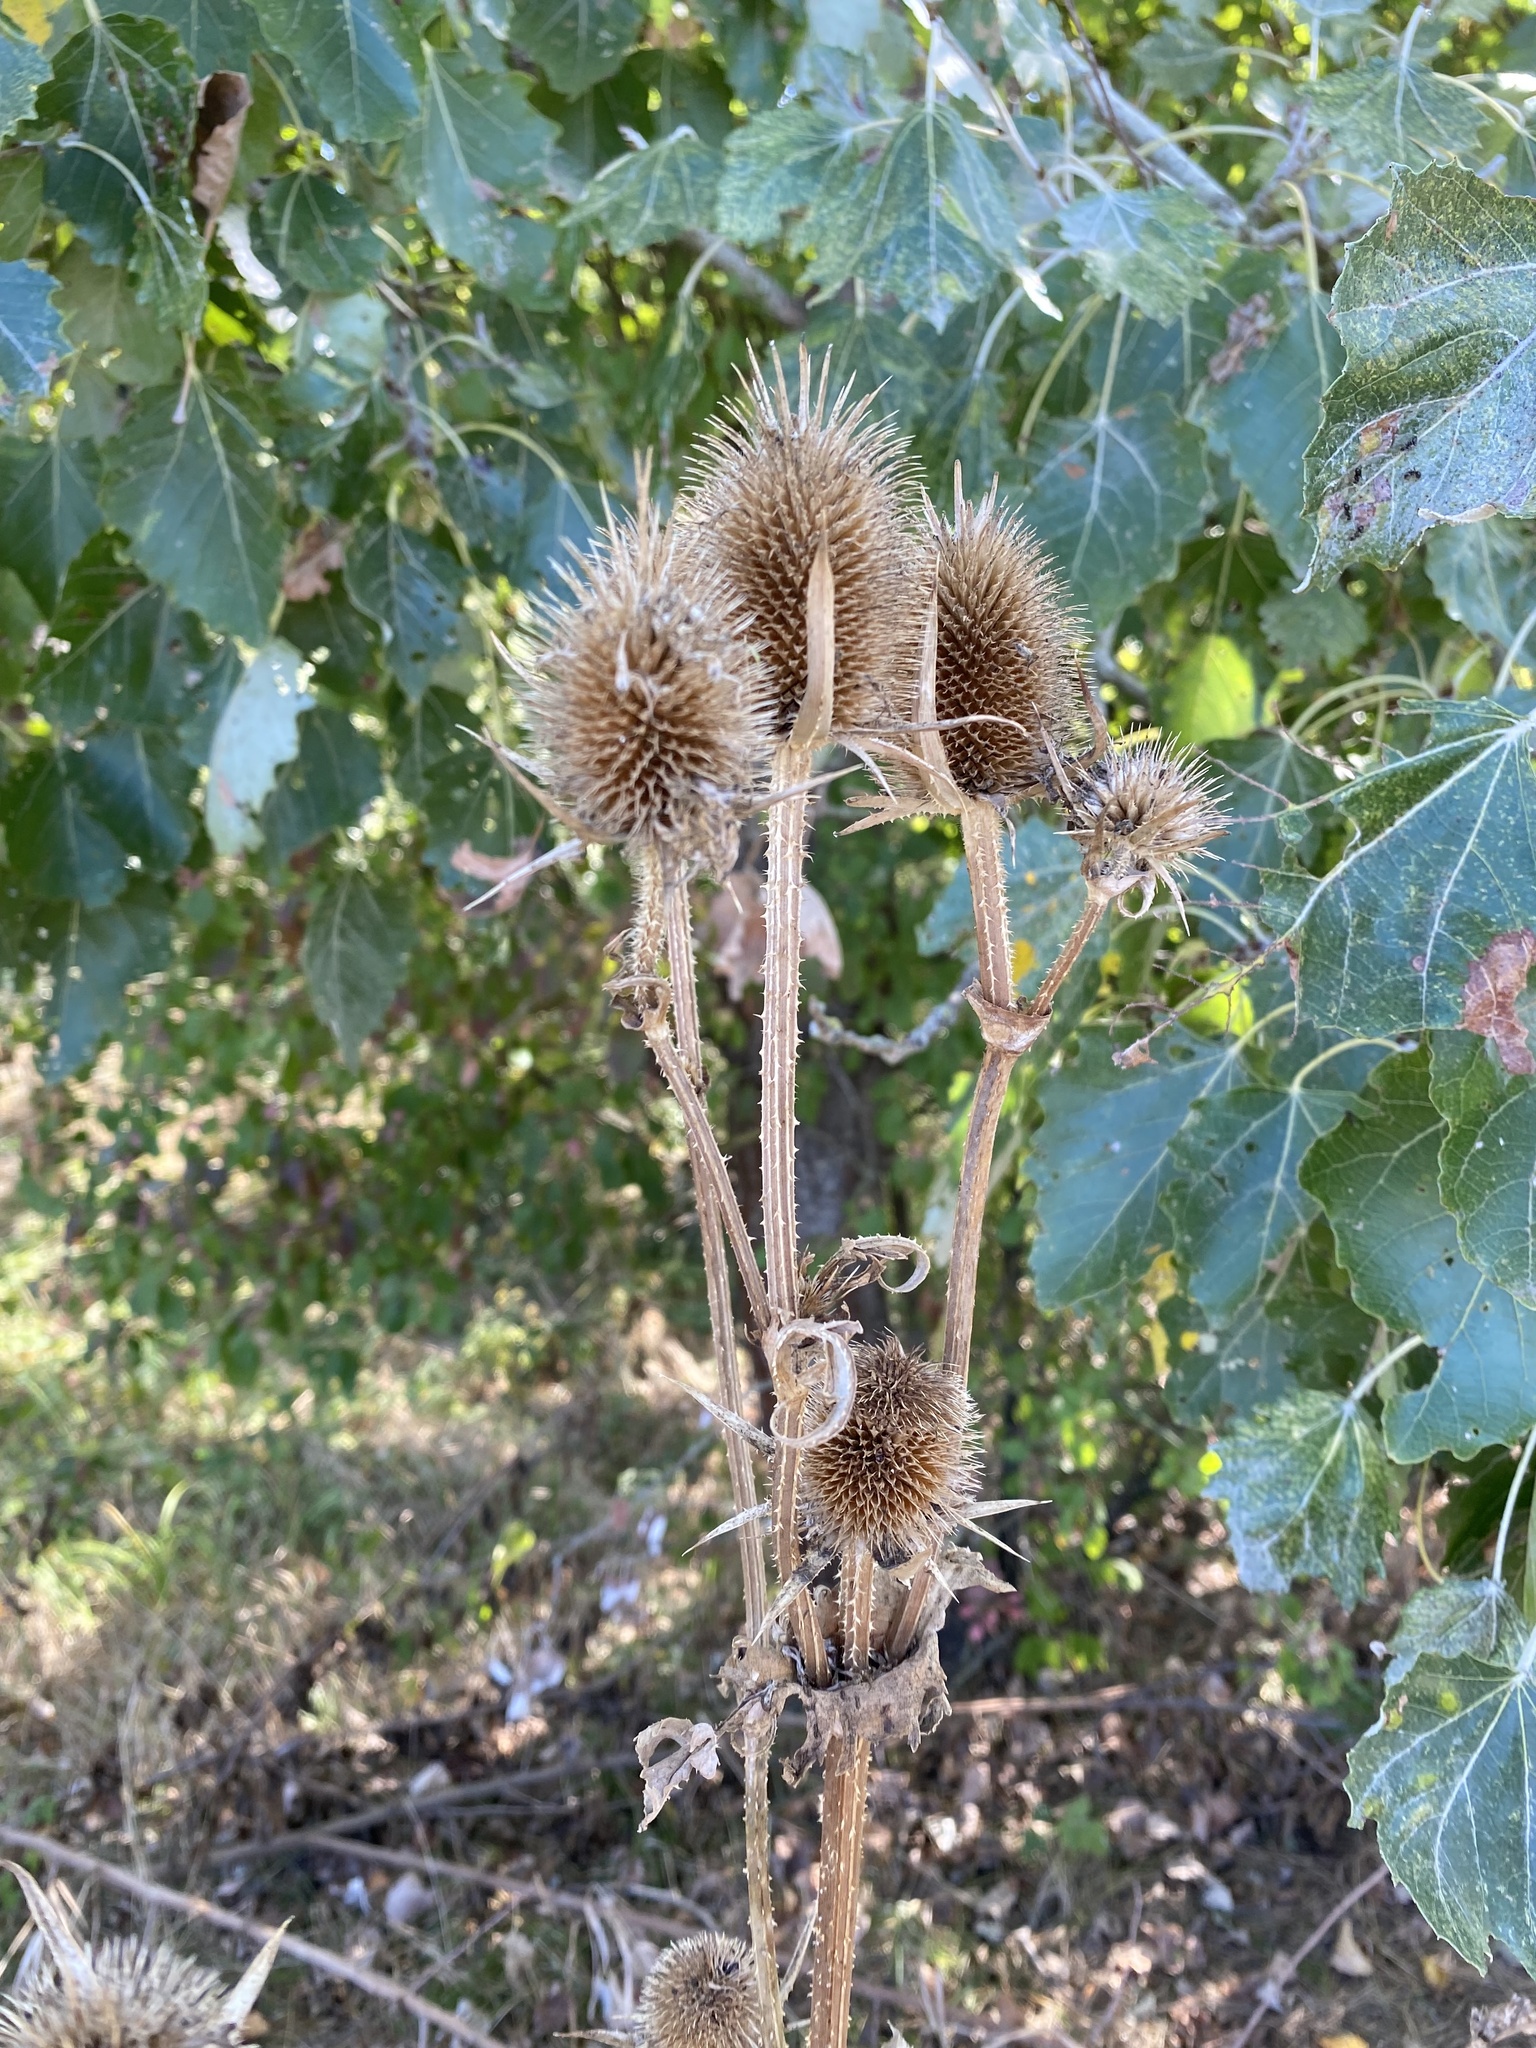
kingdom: Plantae
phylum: Tracheophyta
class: Magnoliopsida
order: Dipsacales
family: Caprifoliaceae
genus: Dipsacus
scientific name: Dipsacus laciniatus
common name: Cut-leaved teasel
